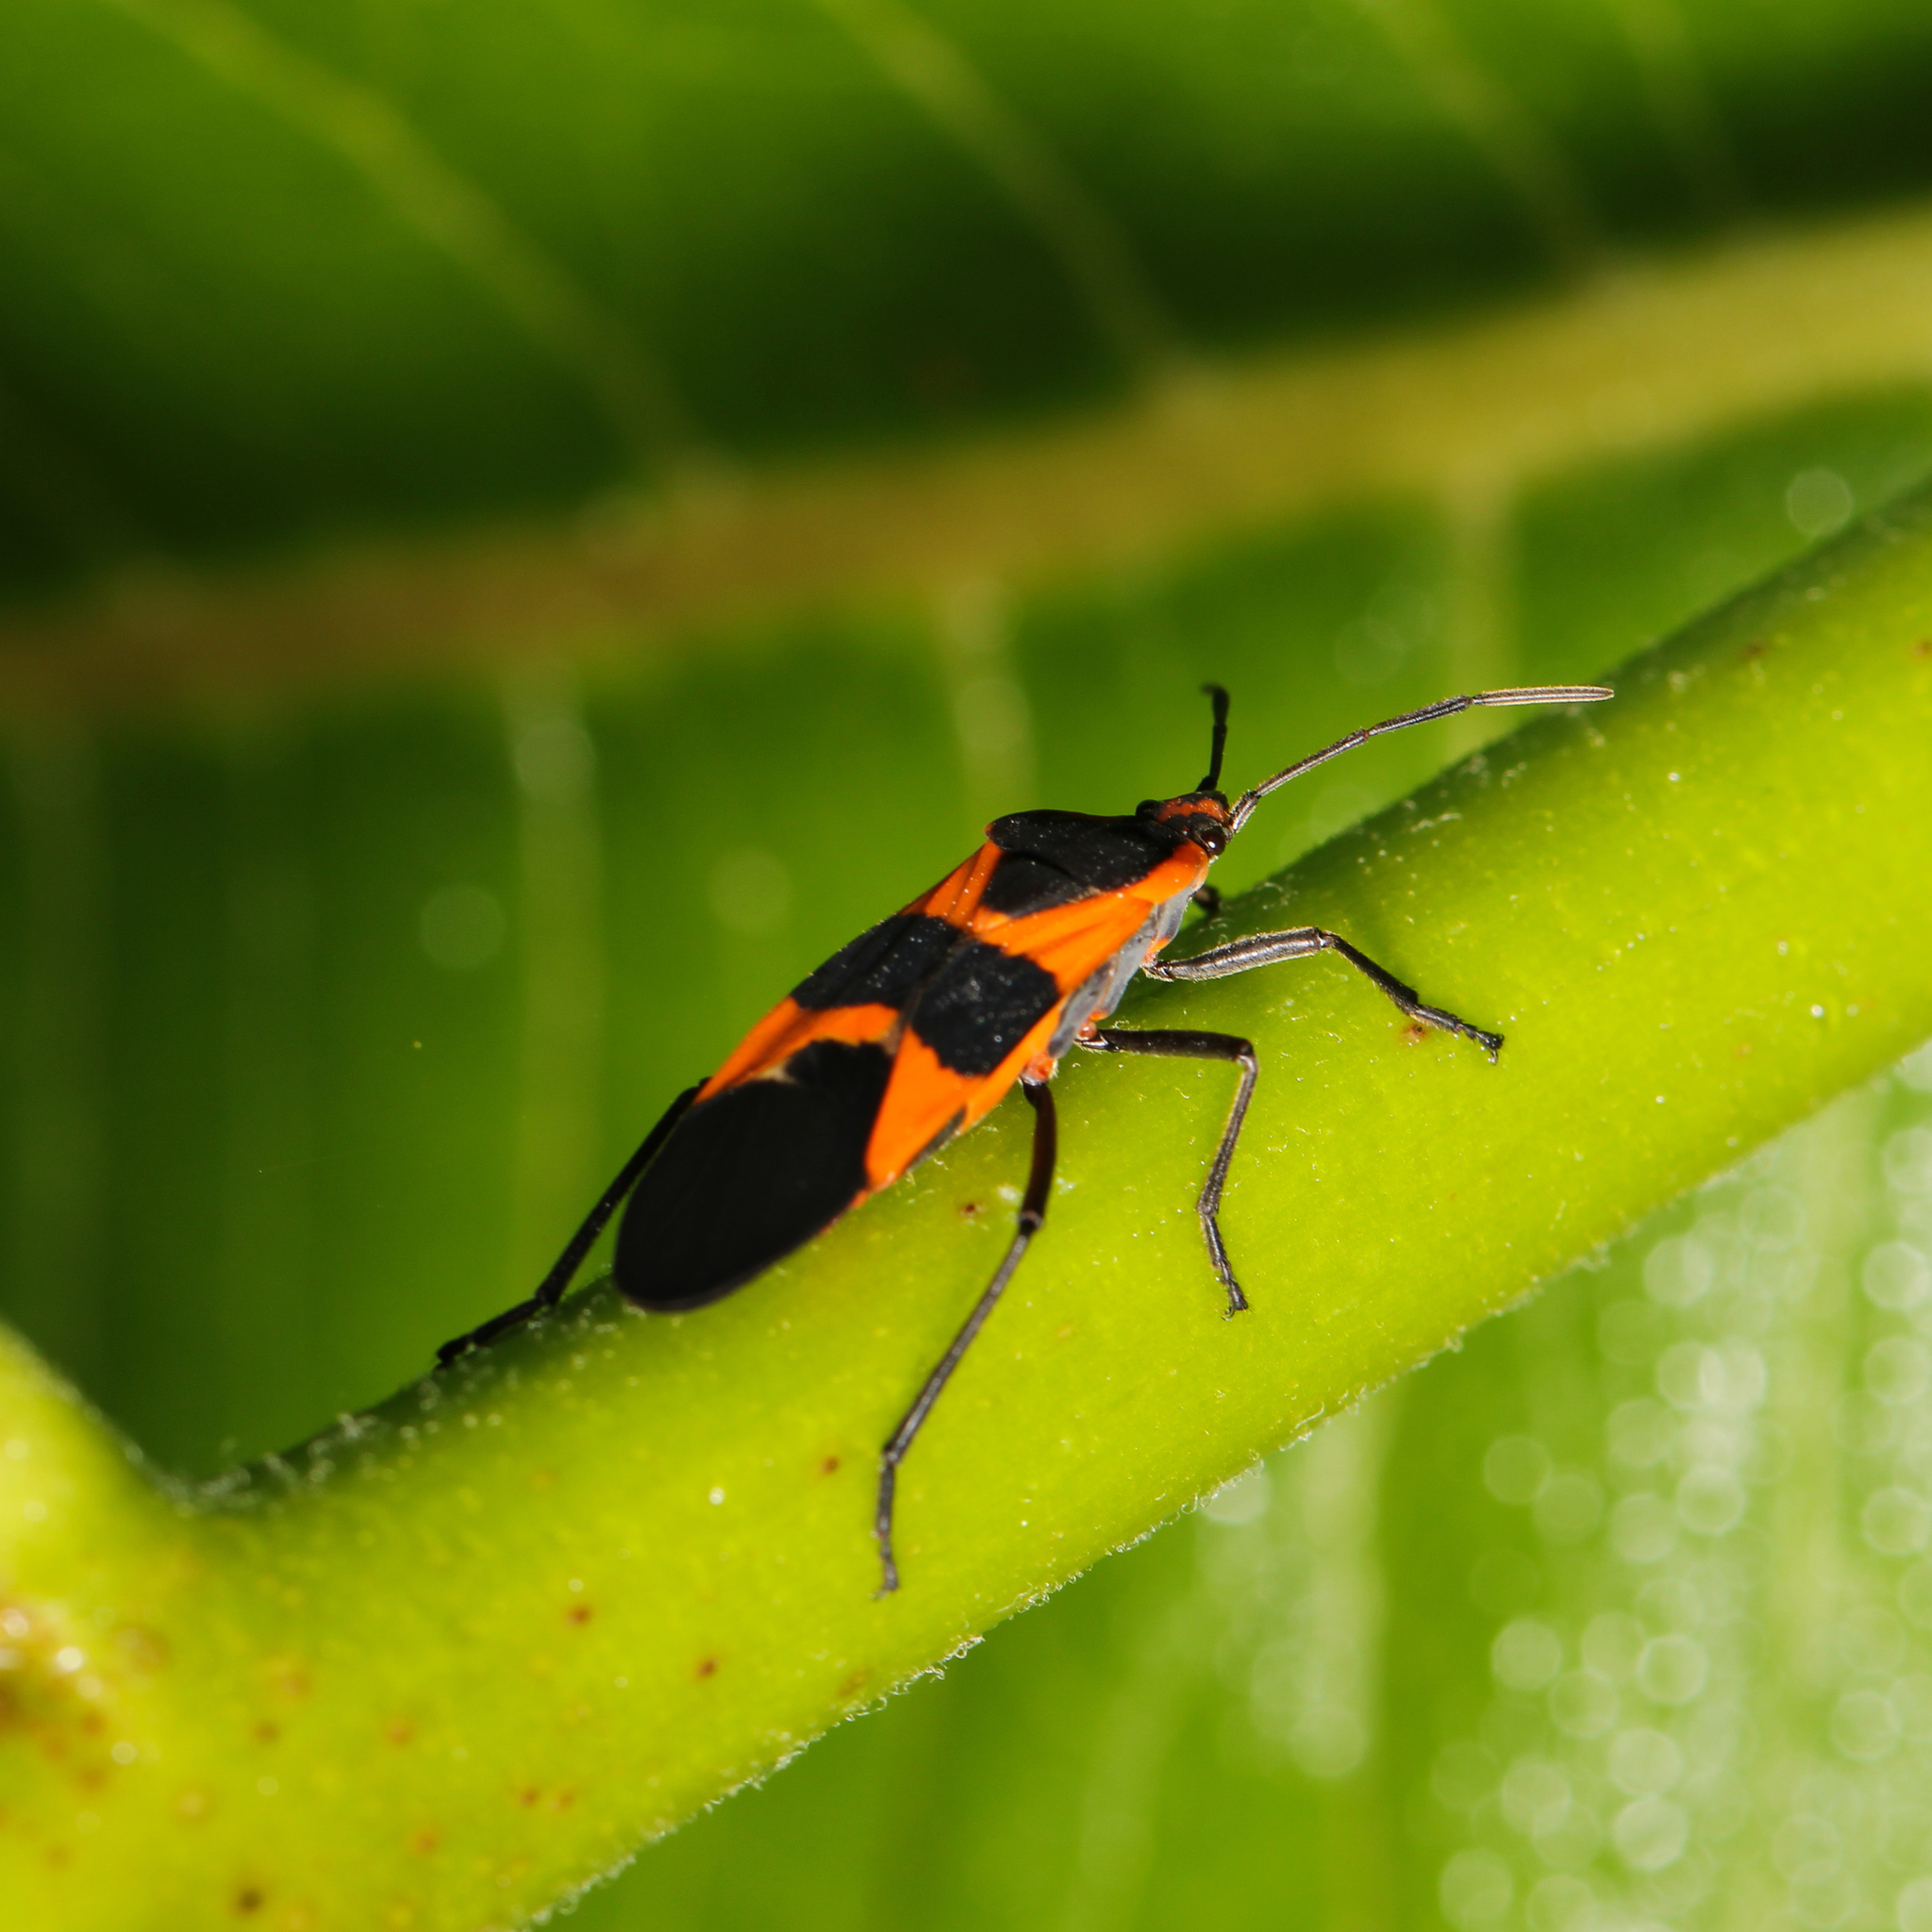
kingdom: Animalia
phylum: Arthropoda
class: Insecta
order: Hemiptera
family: Lygaeidae
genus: Oncopeltus
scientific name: Oncopeltus fasciatus
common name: Large milkweed bug
